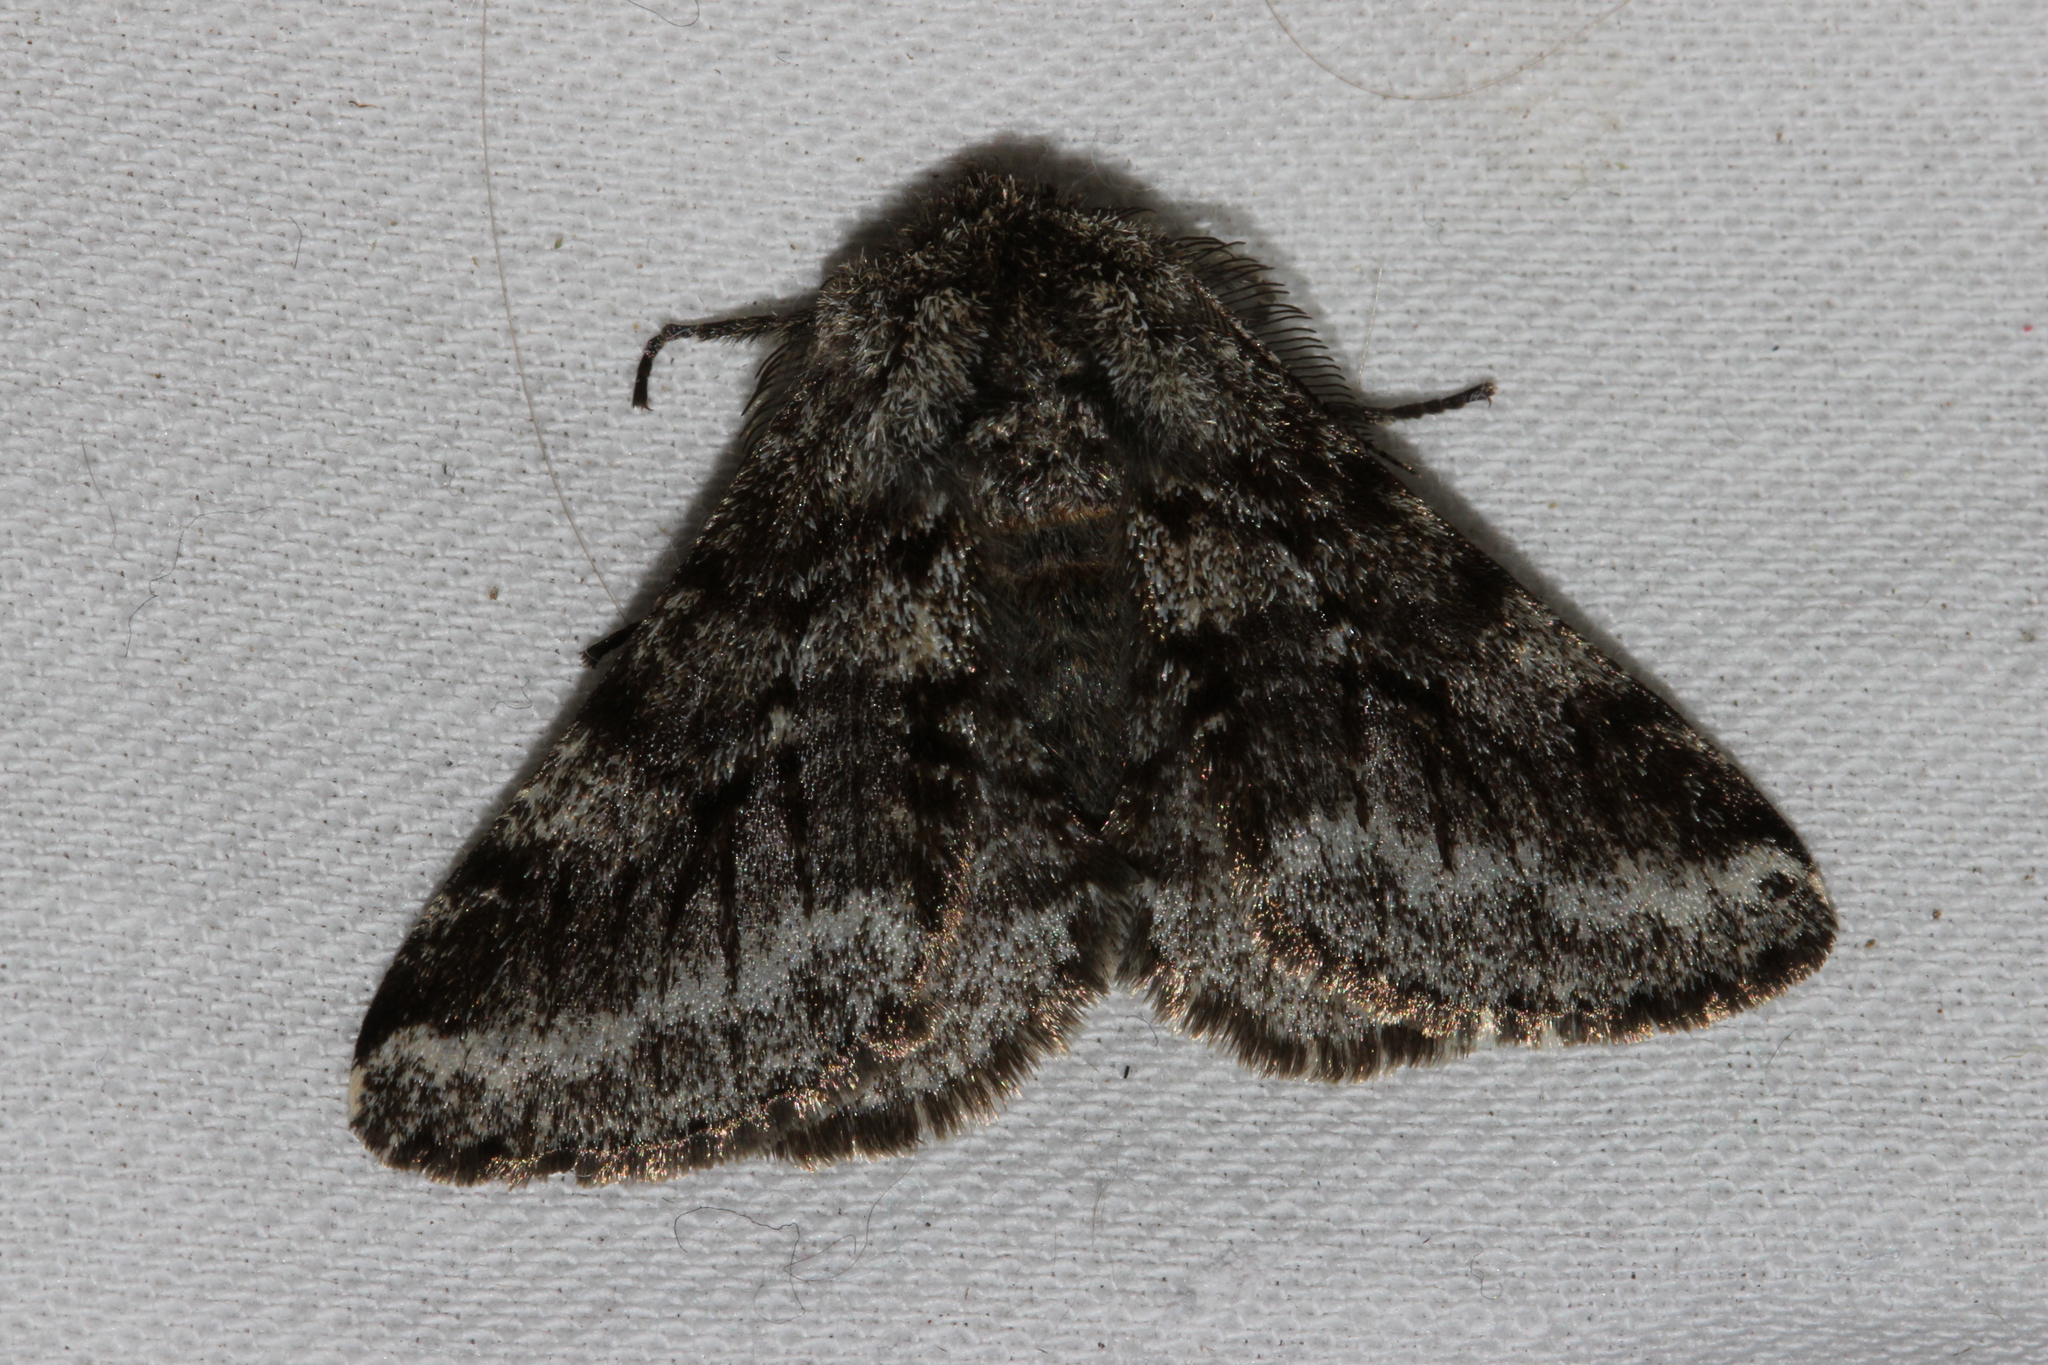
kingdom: Animalia
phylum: Arthropoda
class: Insecta
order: Lepidoptera
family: Geometridae
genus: Lycia
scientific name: Lycia hirtaria
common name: Brindled beauty
